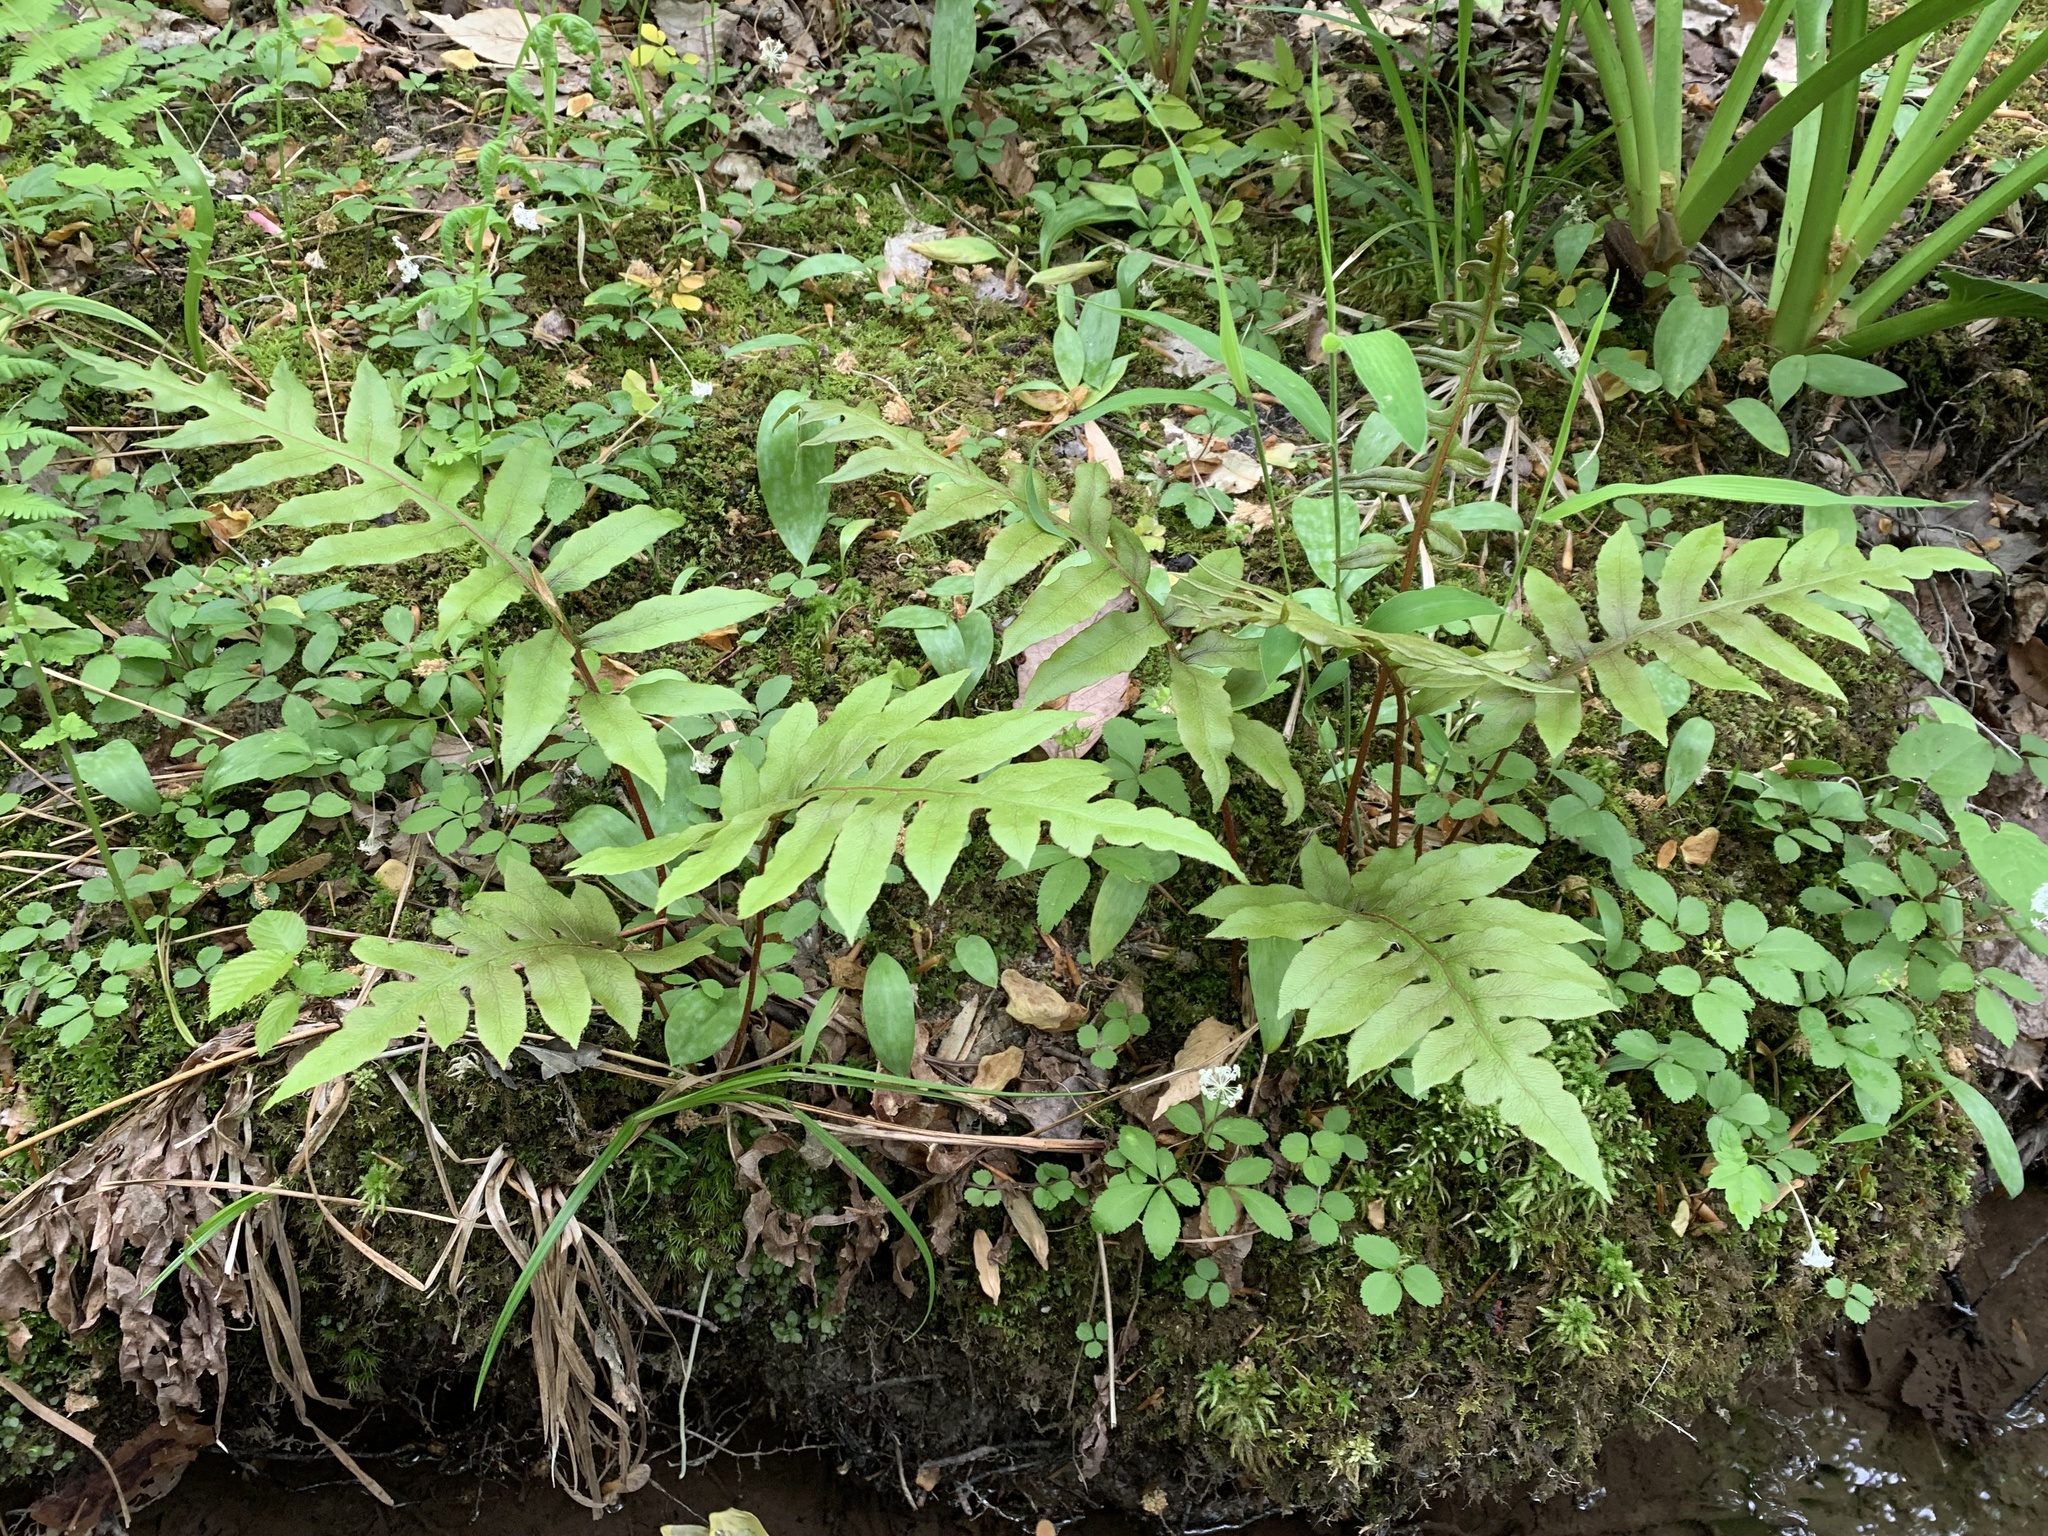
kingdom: Plantae
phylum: Tracheophyta
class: Polypodiopsida
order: Polypodiales
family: Blechnaceae
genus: Lorinseria
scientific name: Lorinseria areolata
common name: Dwarf chain fern
